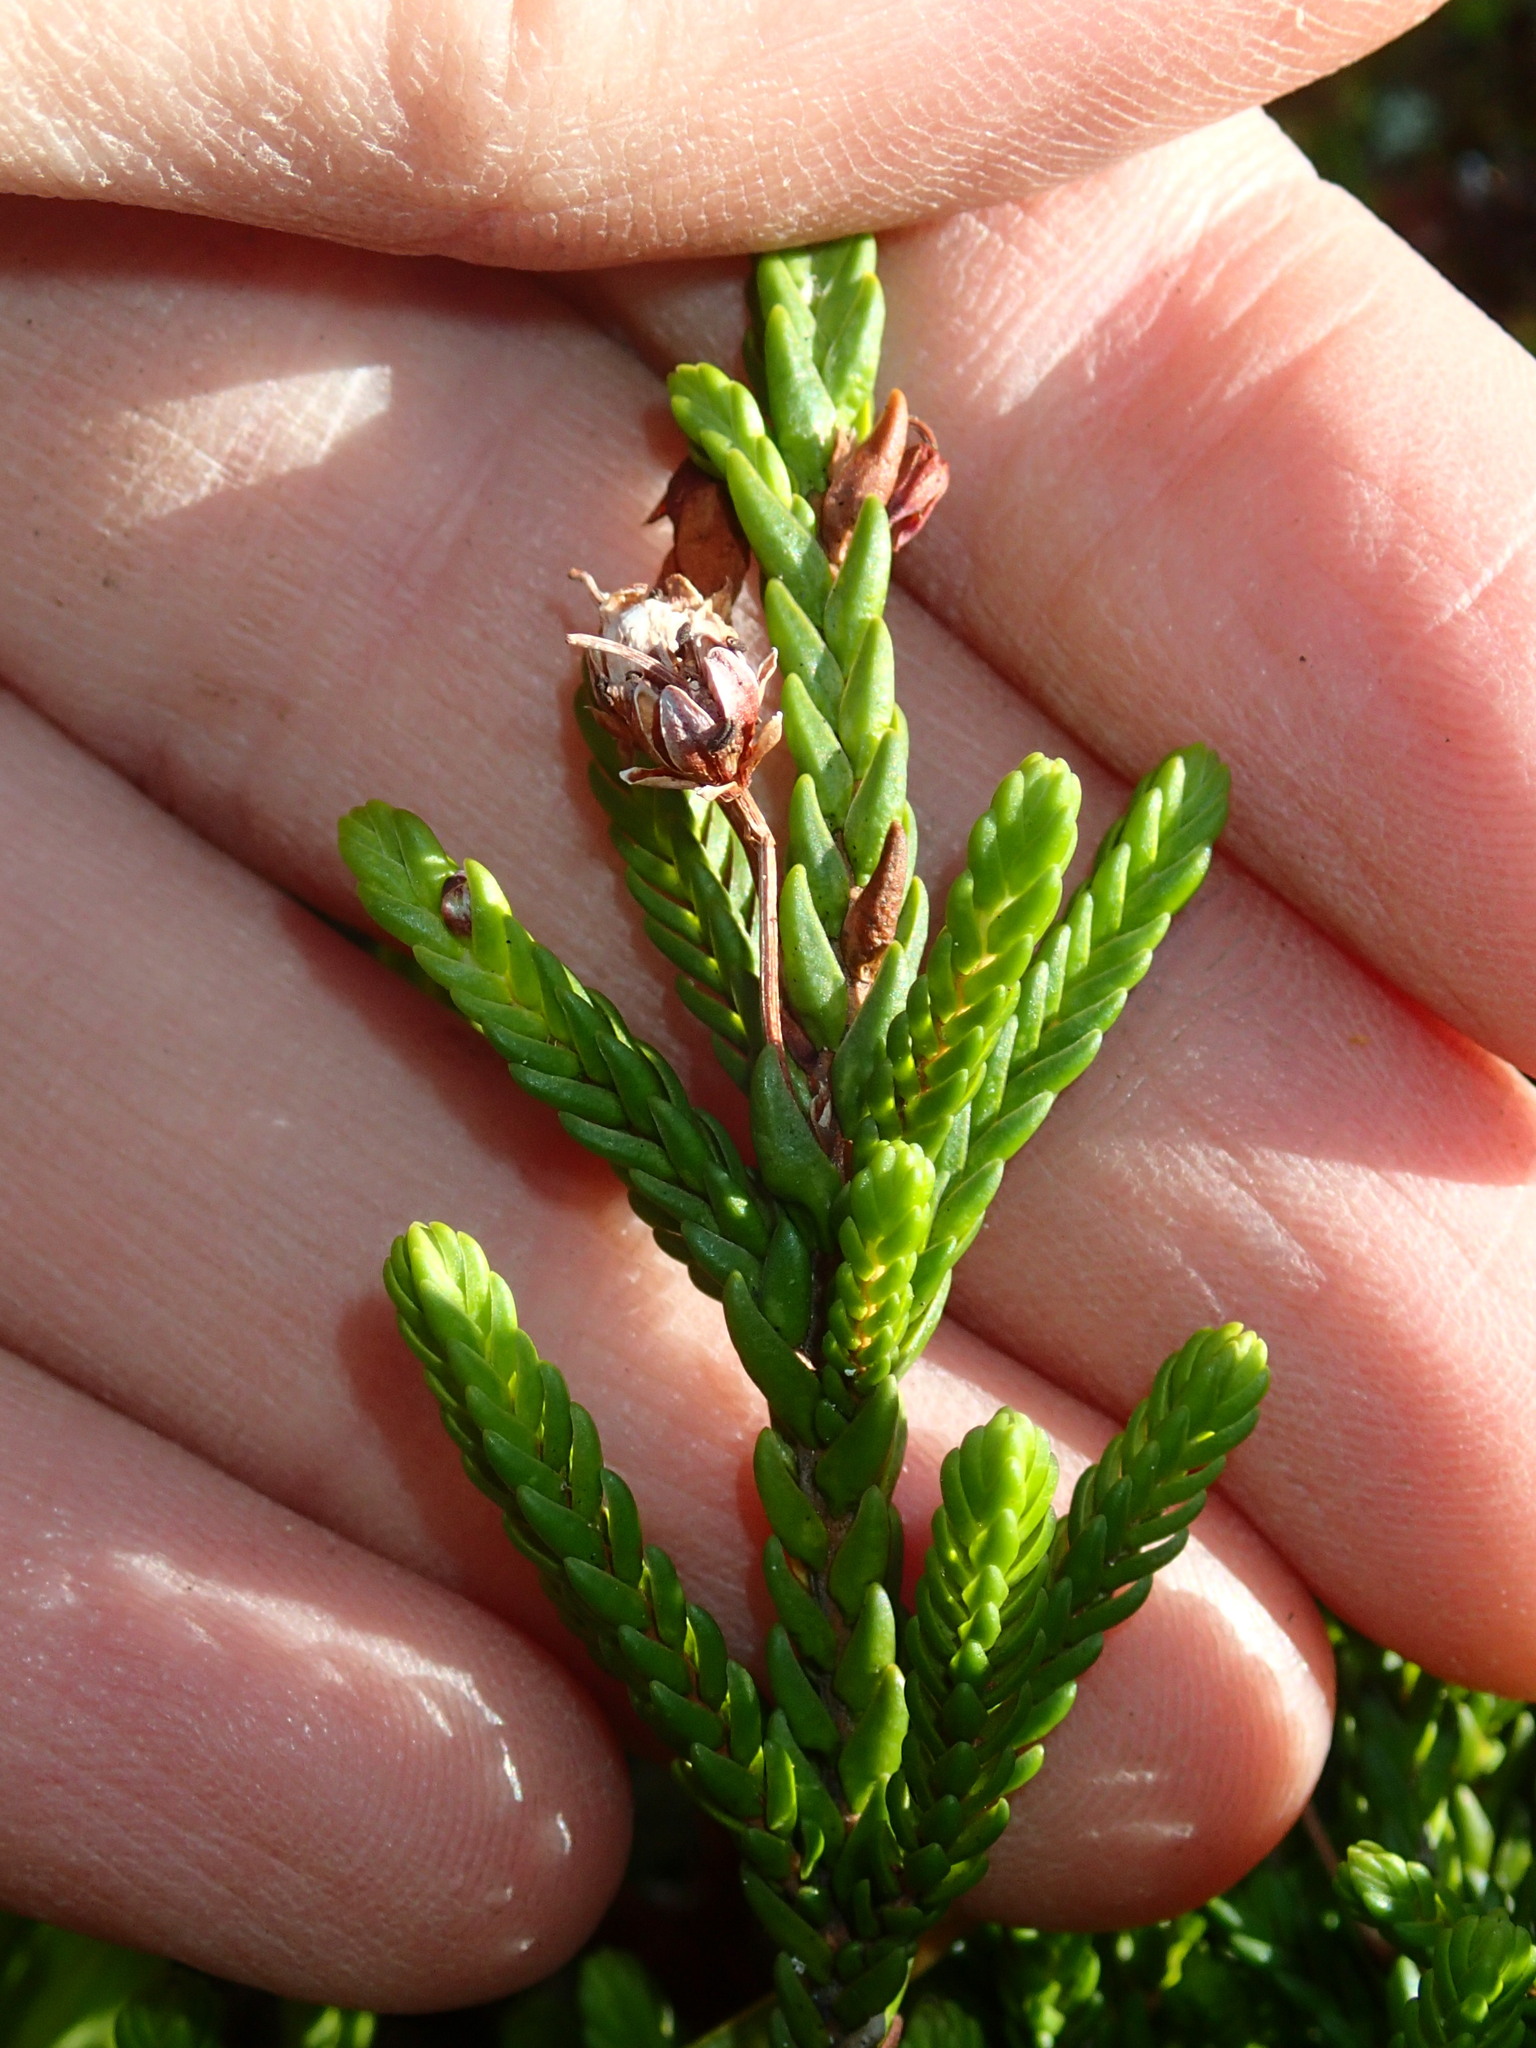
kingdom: Plantae
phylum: Tracheophyta
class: Magnoliopsida
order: Ericales
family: Ericaceae
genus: Cassiope
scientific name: Cassiope mertensiana
